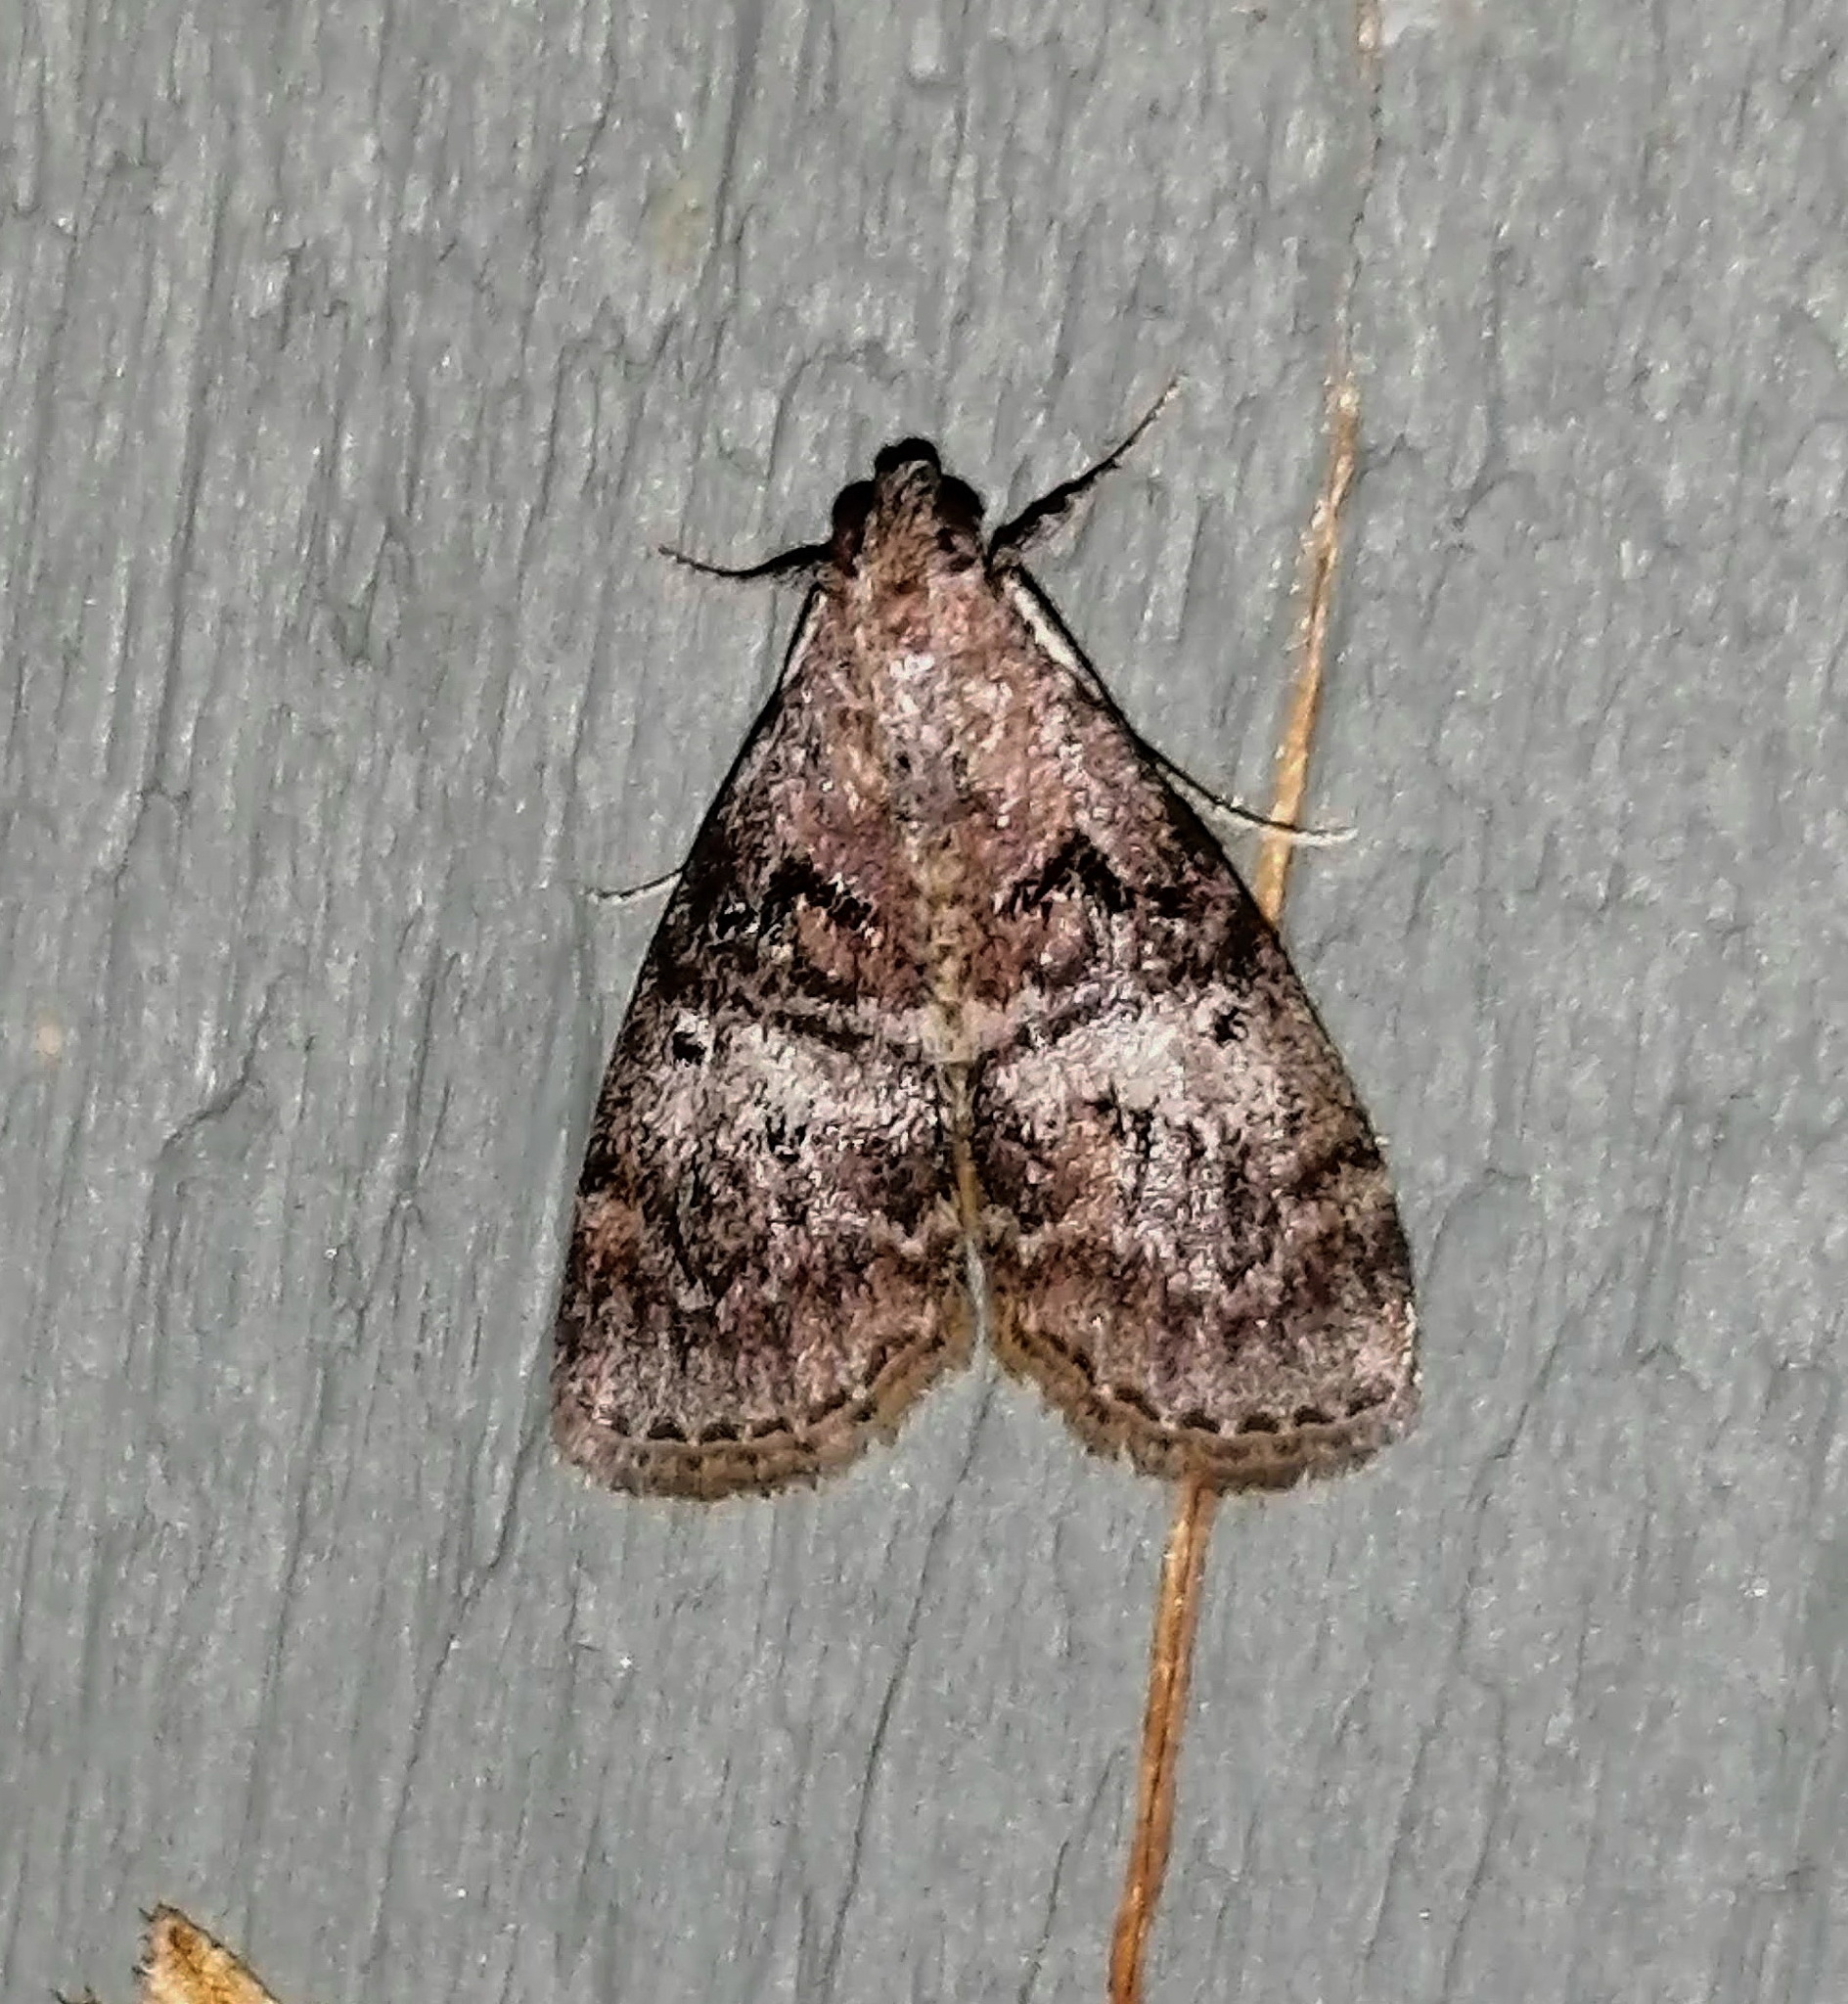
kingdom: Animalia
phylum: Arthropoda
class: Insecta
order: Lepidoptera
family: Pyralidae
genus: Pococera
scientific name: Pococera asperatella
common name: Maple webworm moth
